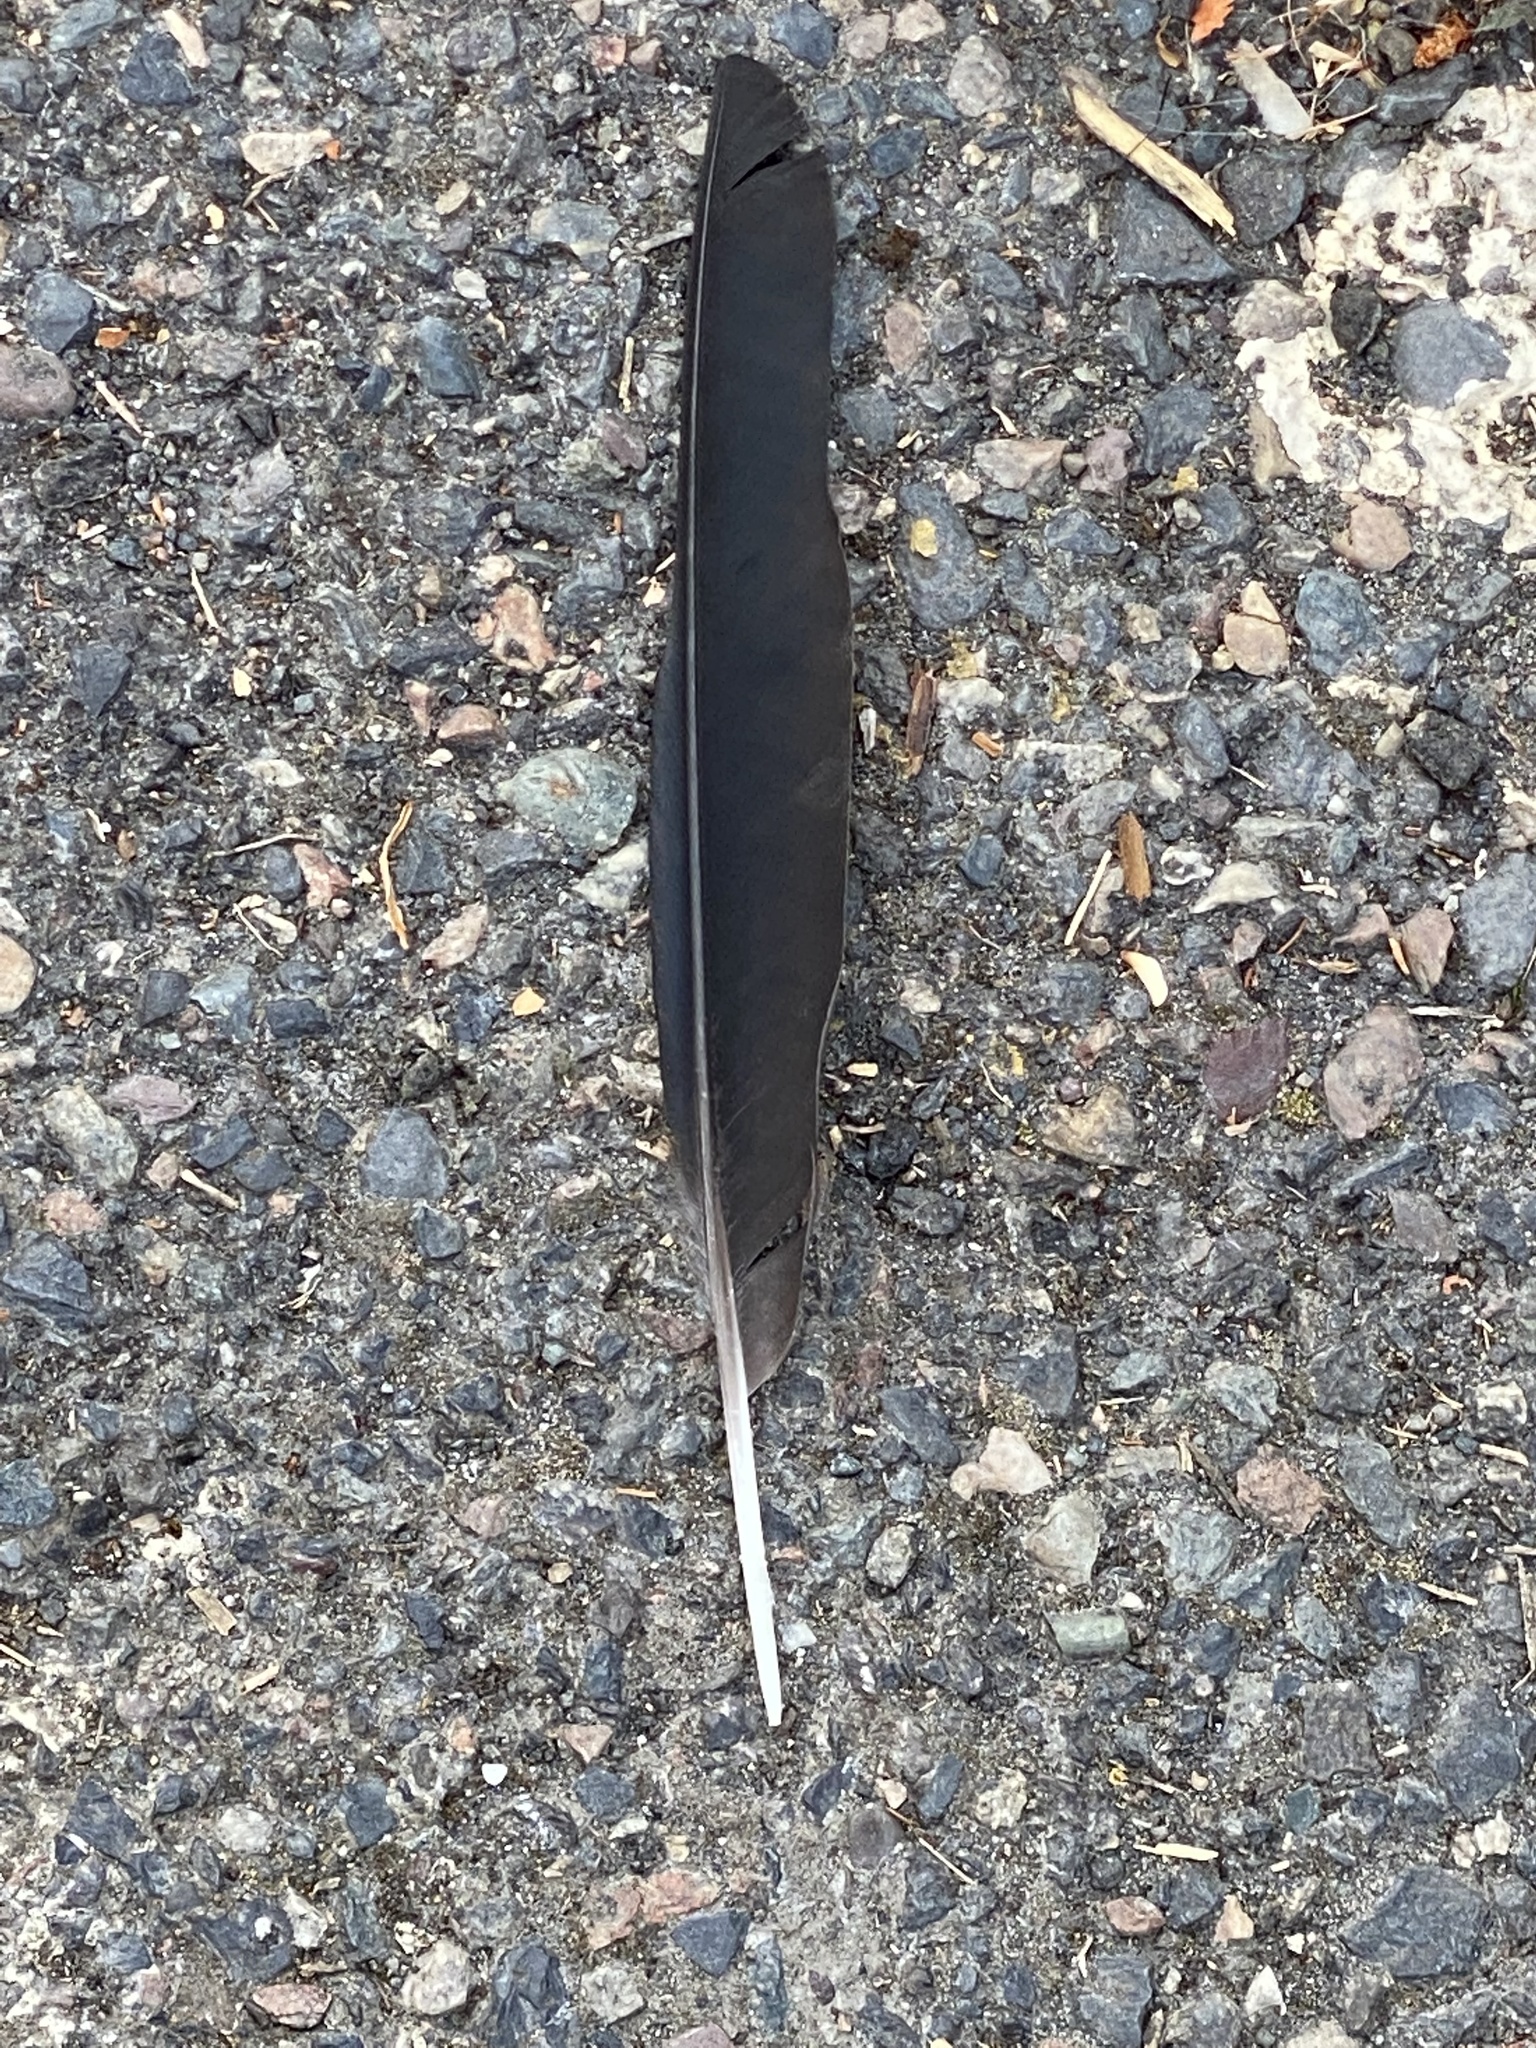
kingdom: Animalia
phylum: Chordata
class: Aves
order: Passeriformes
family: Corvidae
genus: Corvus
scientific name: Corvus brachyrhynchos
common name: American crow
